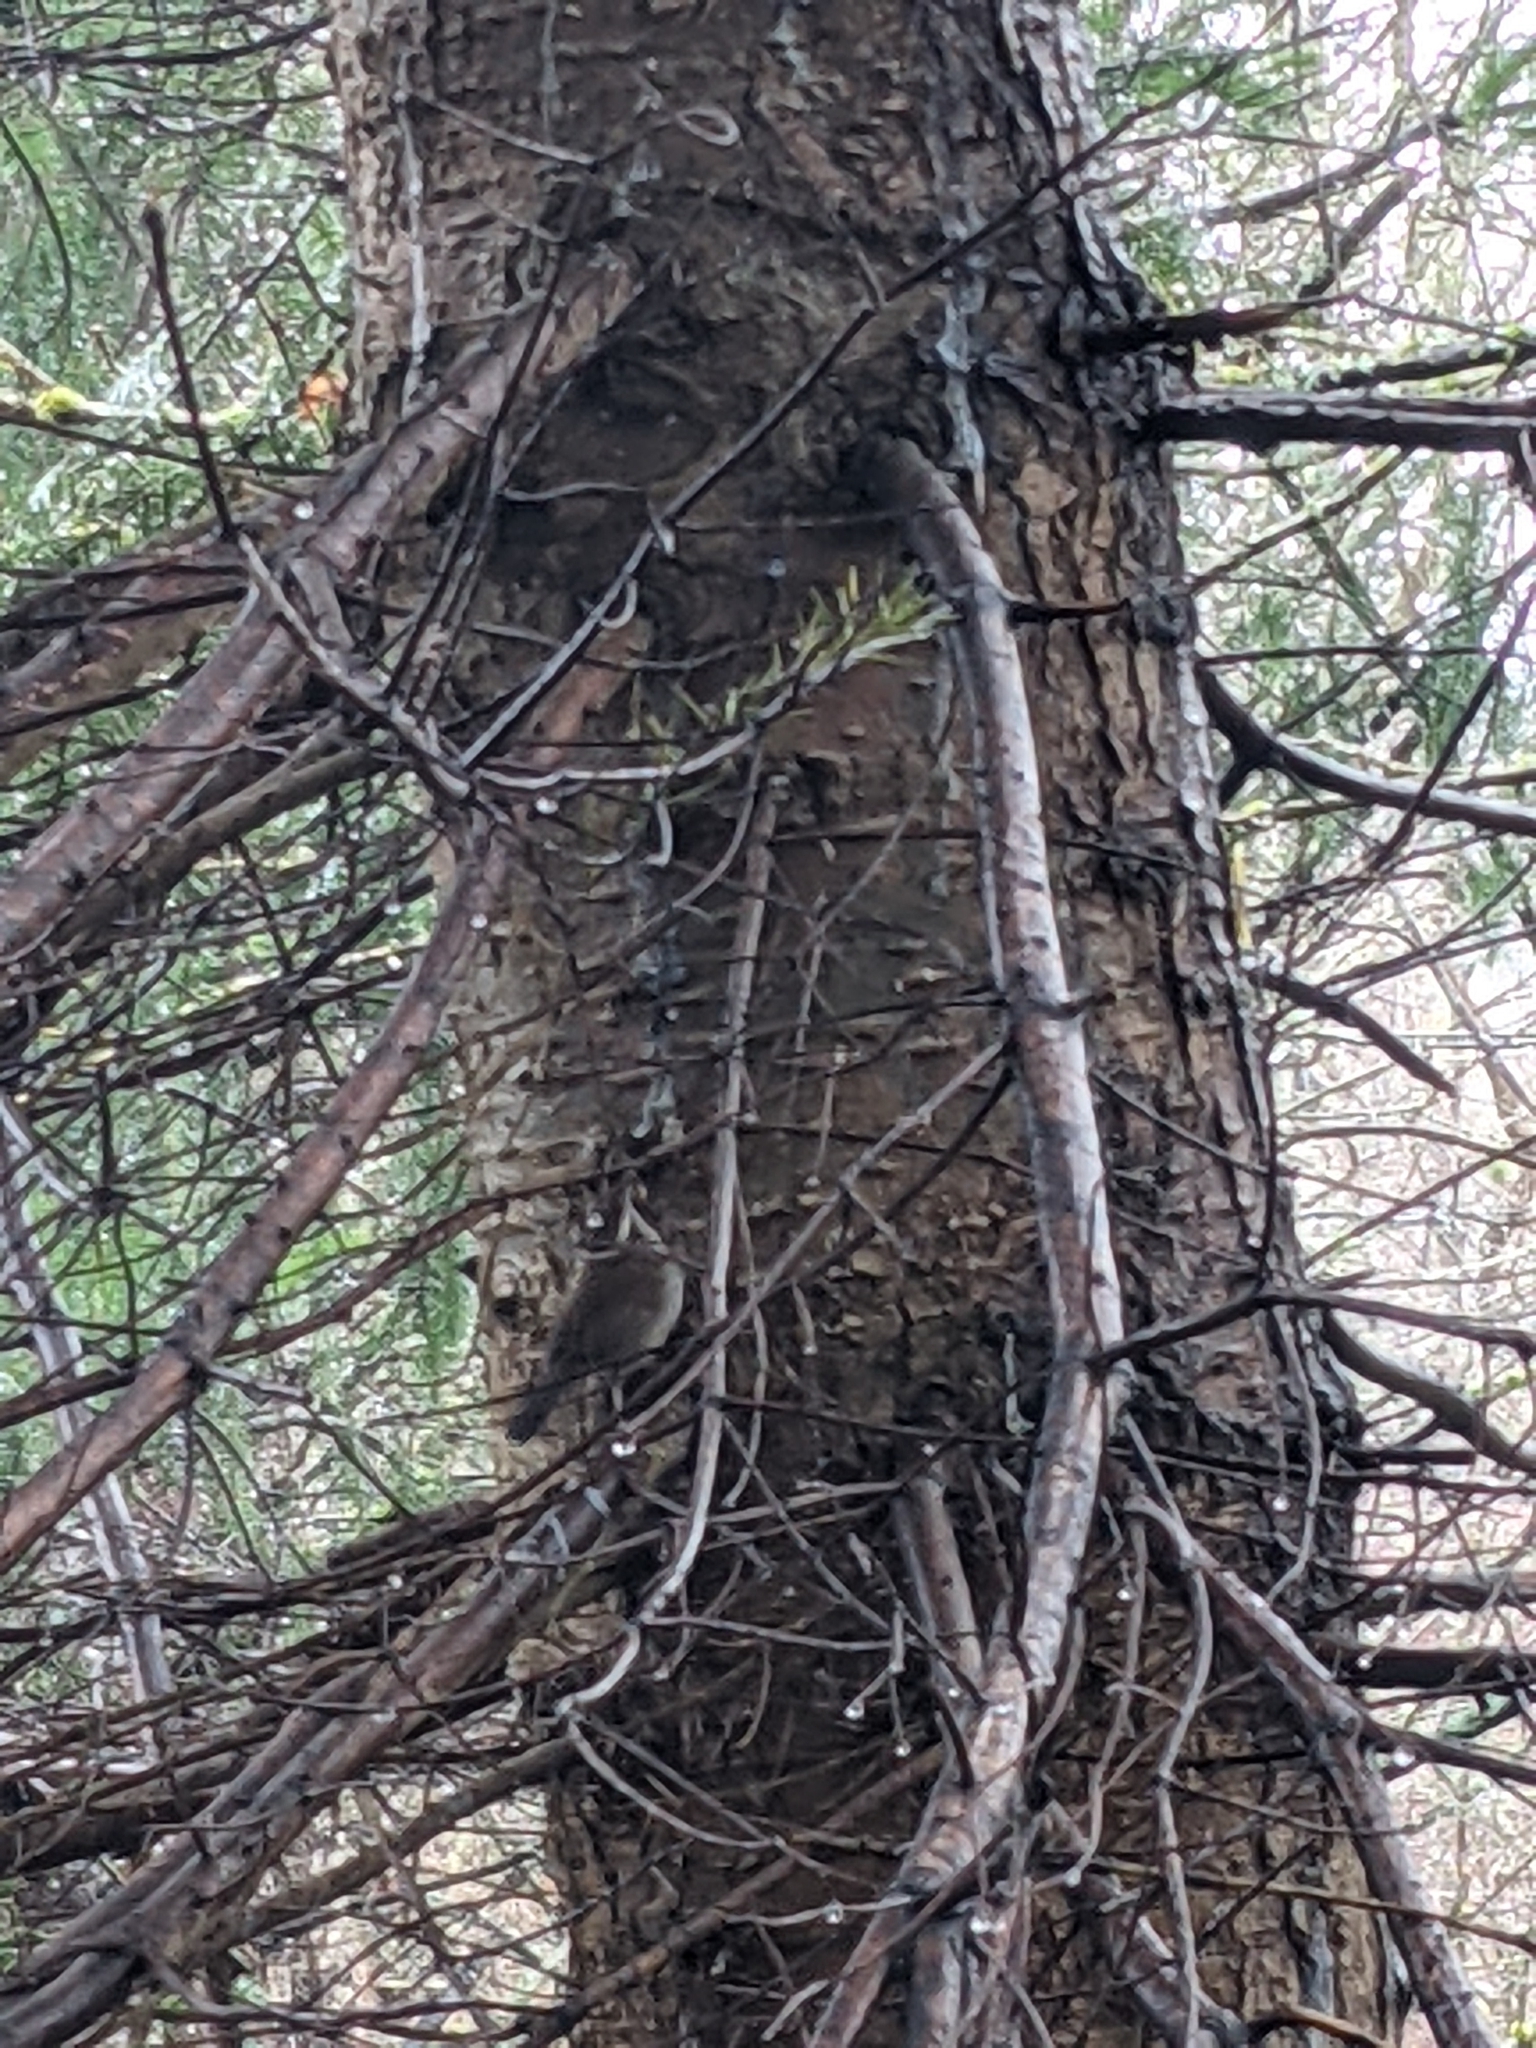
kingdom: Animalia
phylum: Chordata
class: Aves
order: Passeriformes
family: Troglodytidae
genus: Thryomanes
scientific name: Thryomanes bewickii
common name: Bewick's wren
